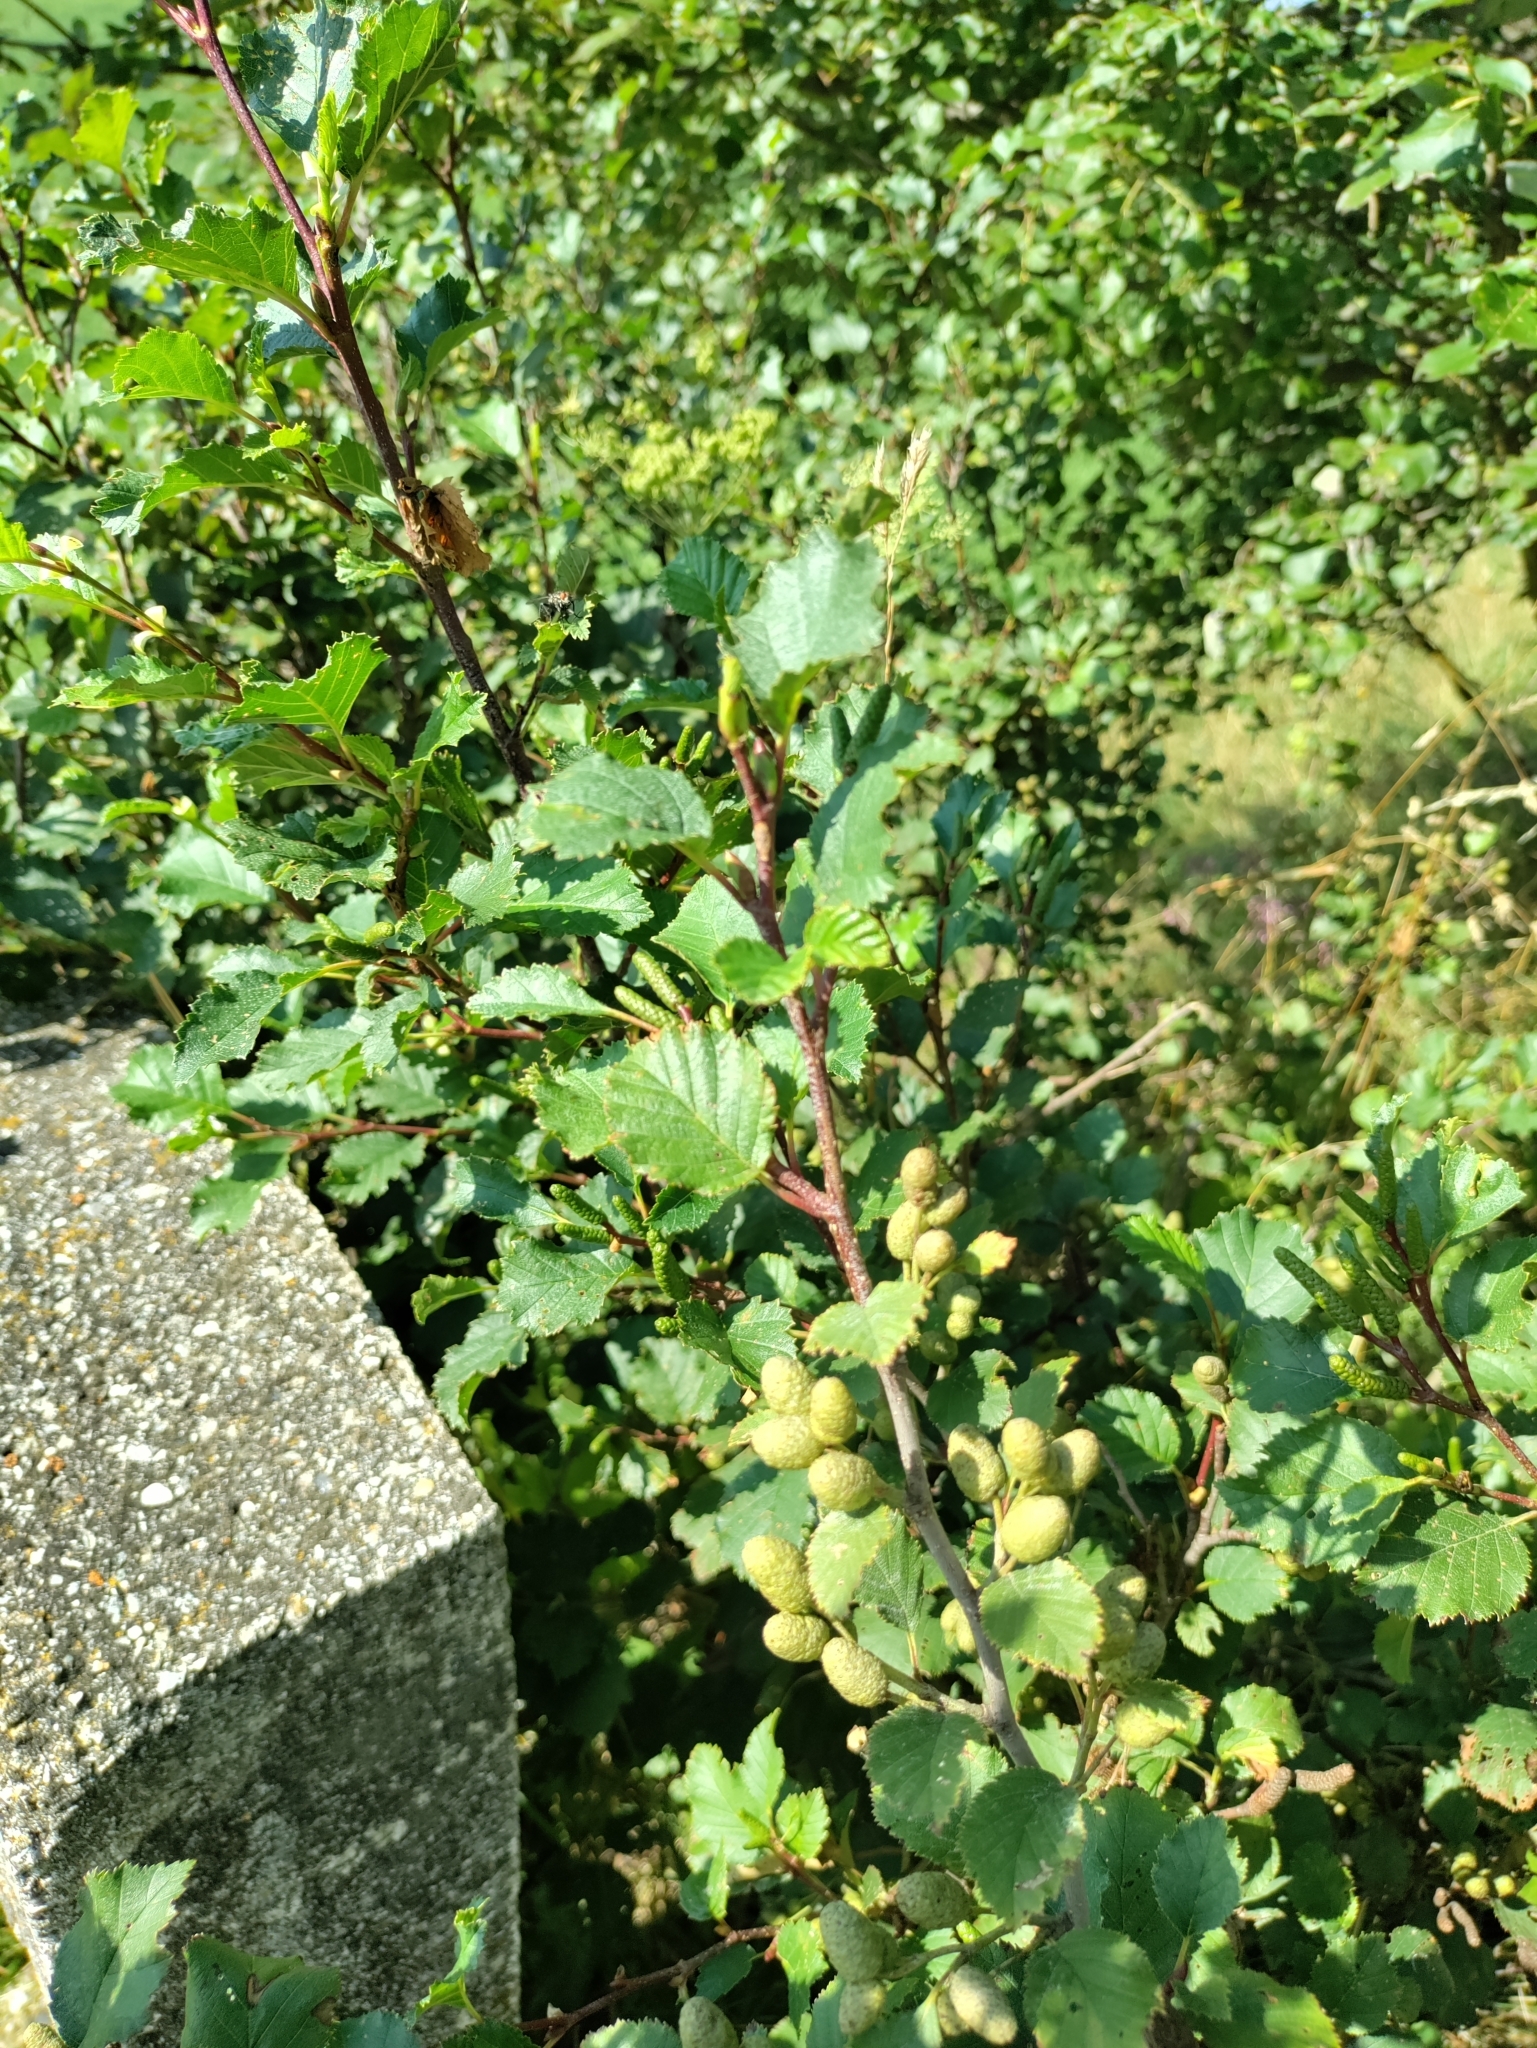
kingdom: Plantae
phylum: Tracheophyta
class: Magnoliopsida
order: Fagales
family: Betulaceae
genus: Alnus
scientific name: Alnus alnobetula
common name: Green alder
